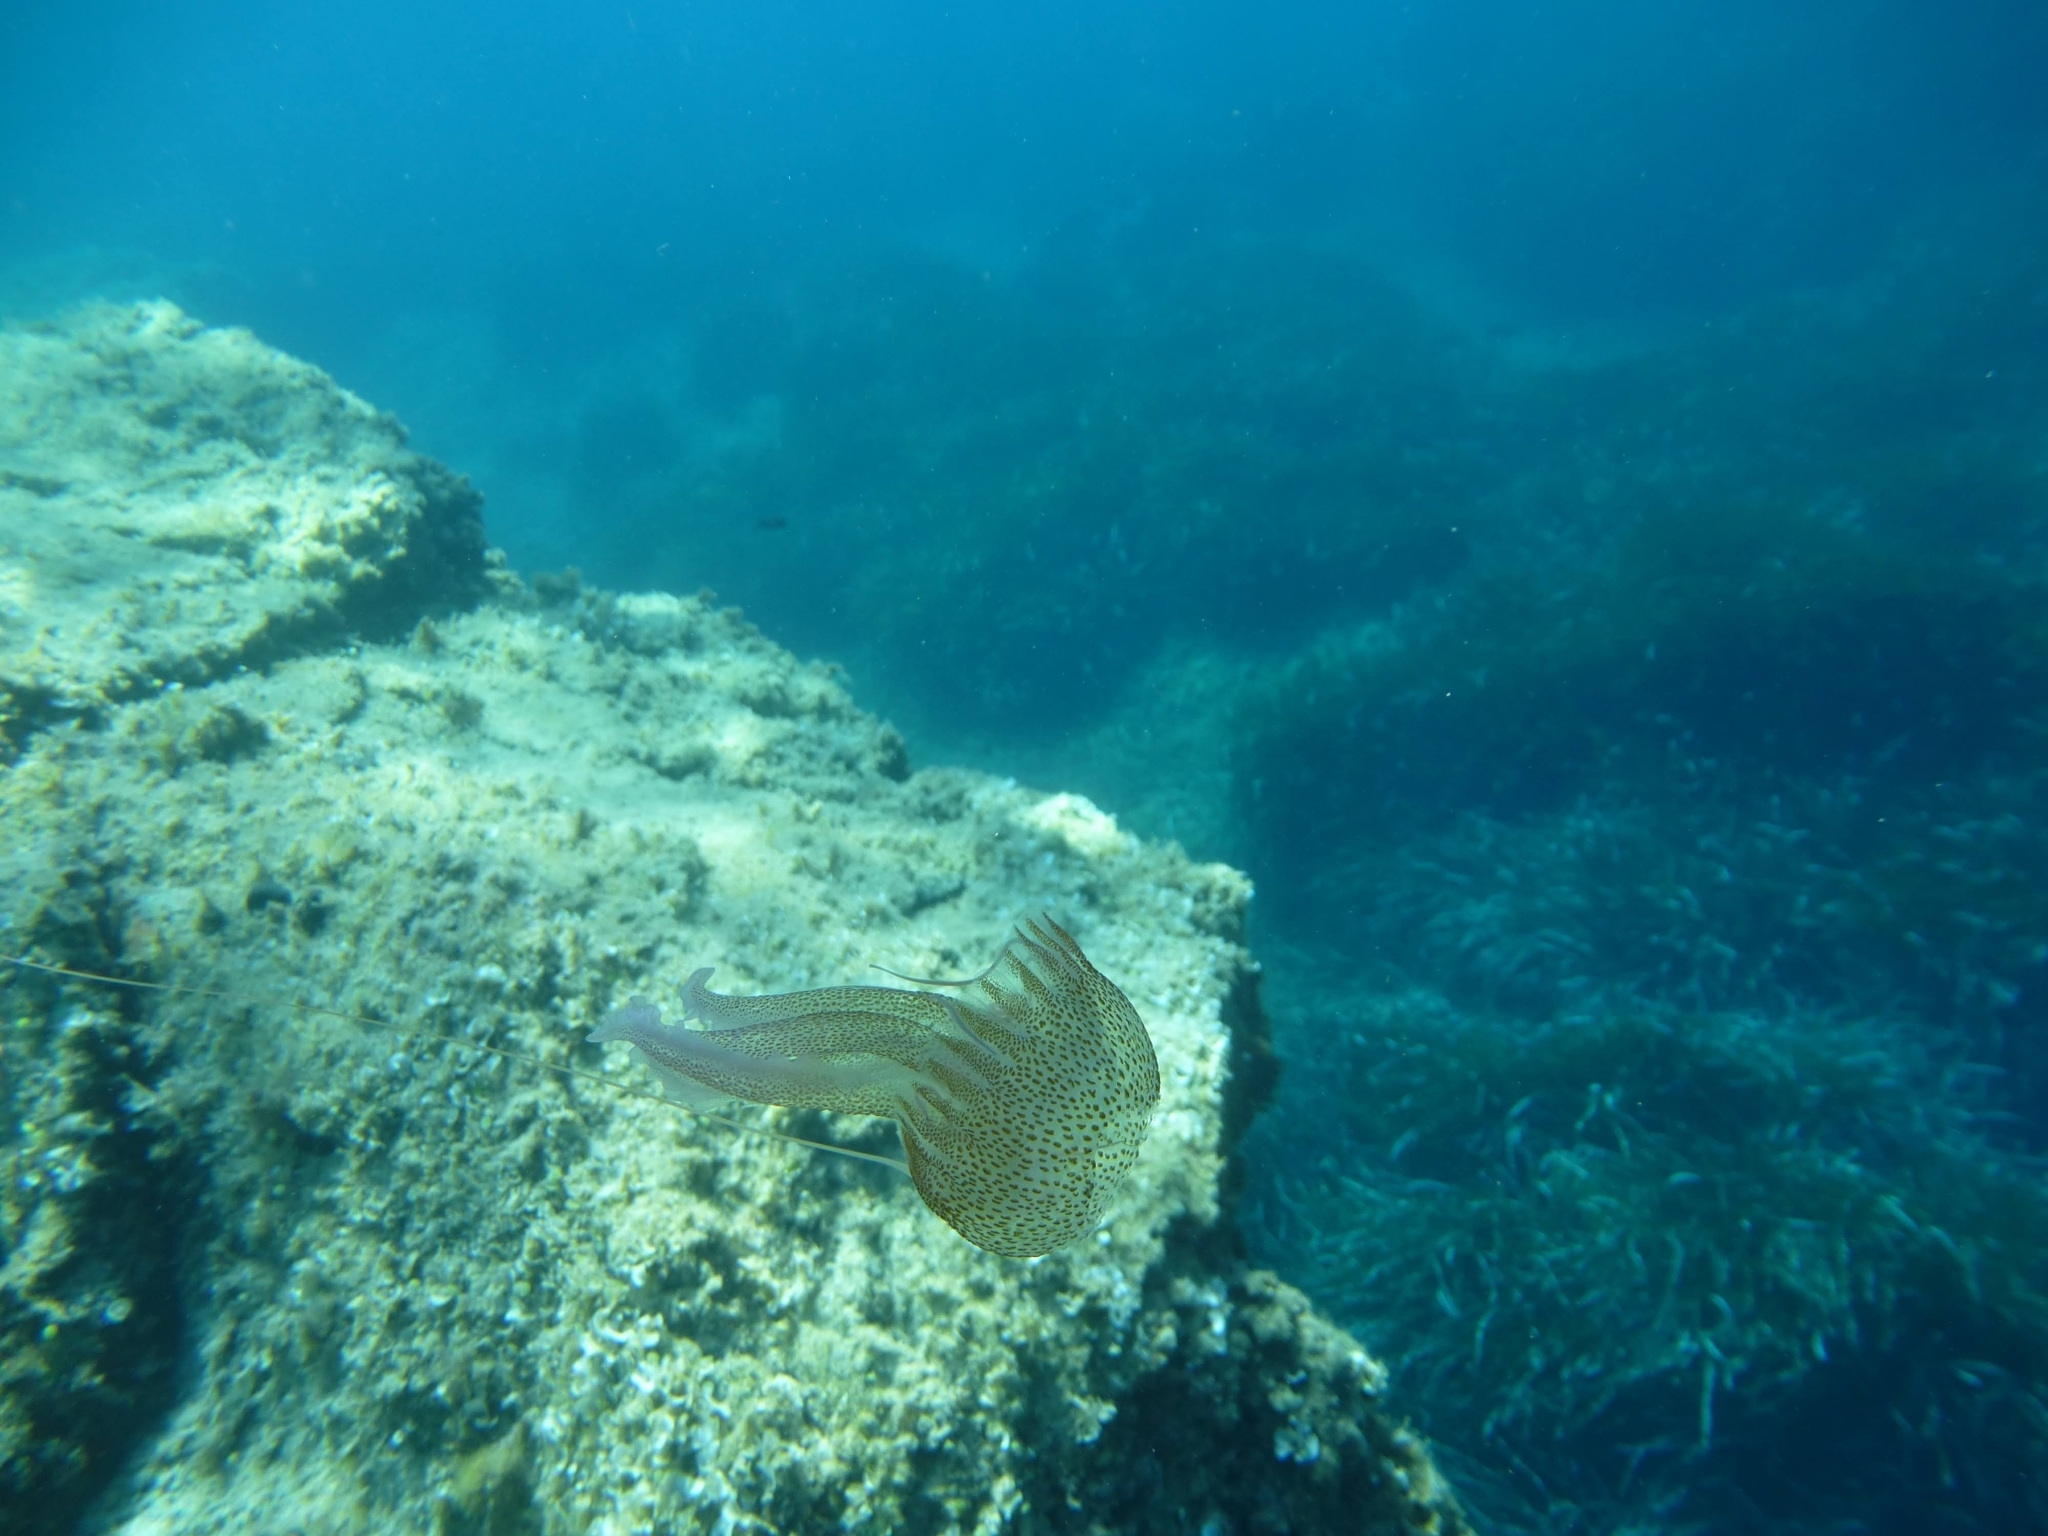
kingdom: Animalia
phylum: Cnidaria
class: Scyphozoa
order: Semaeostomeae
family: Pelagiidae
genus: Pelagia
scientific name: Pelagia noctiluca
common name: Mauve stinger
